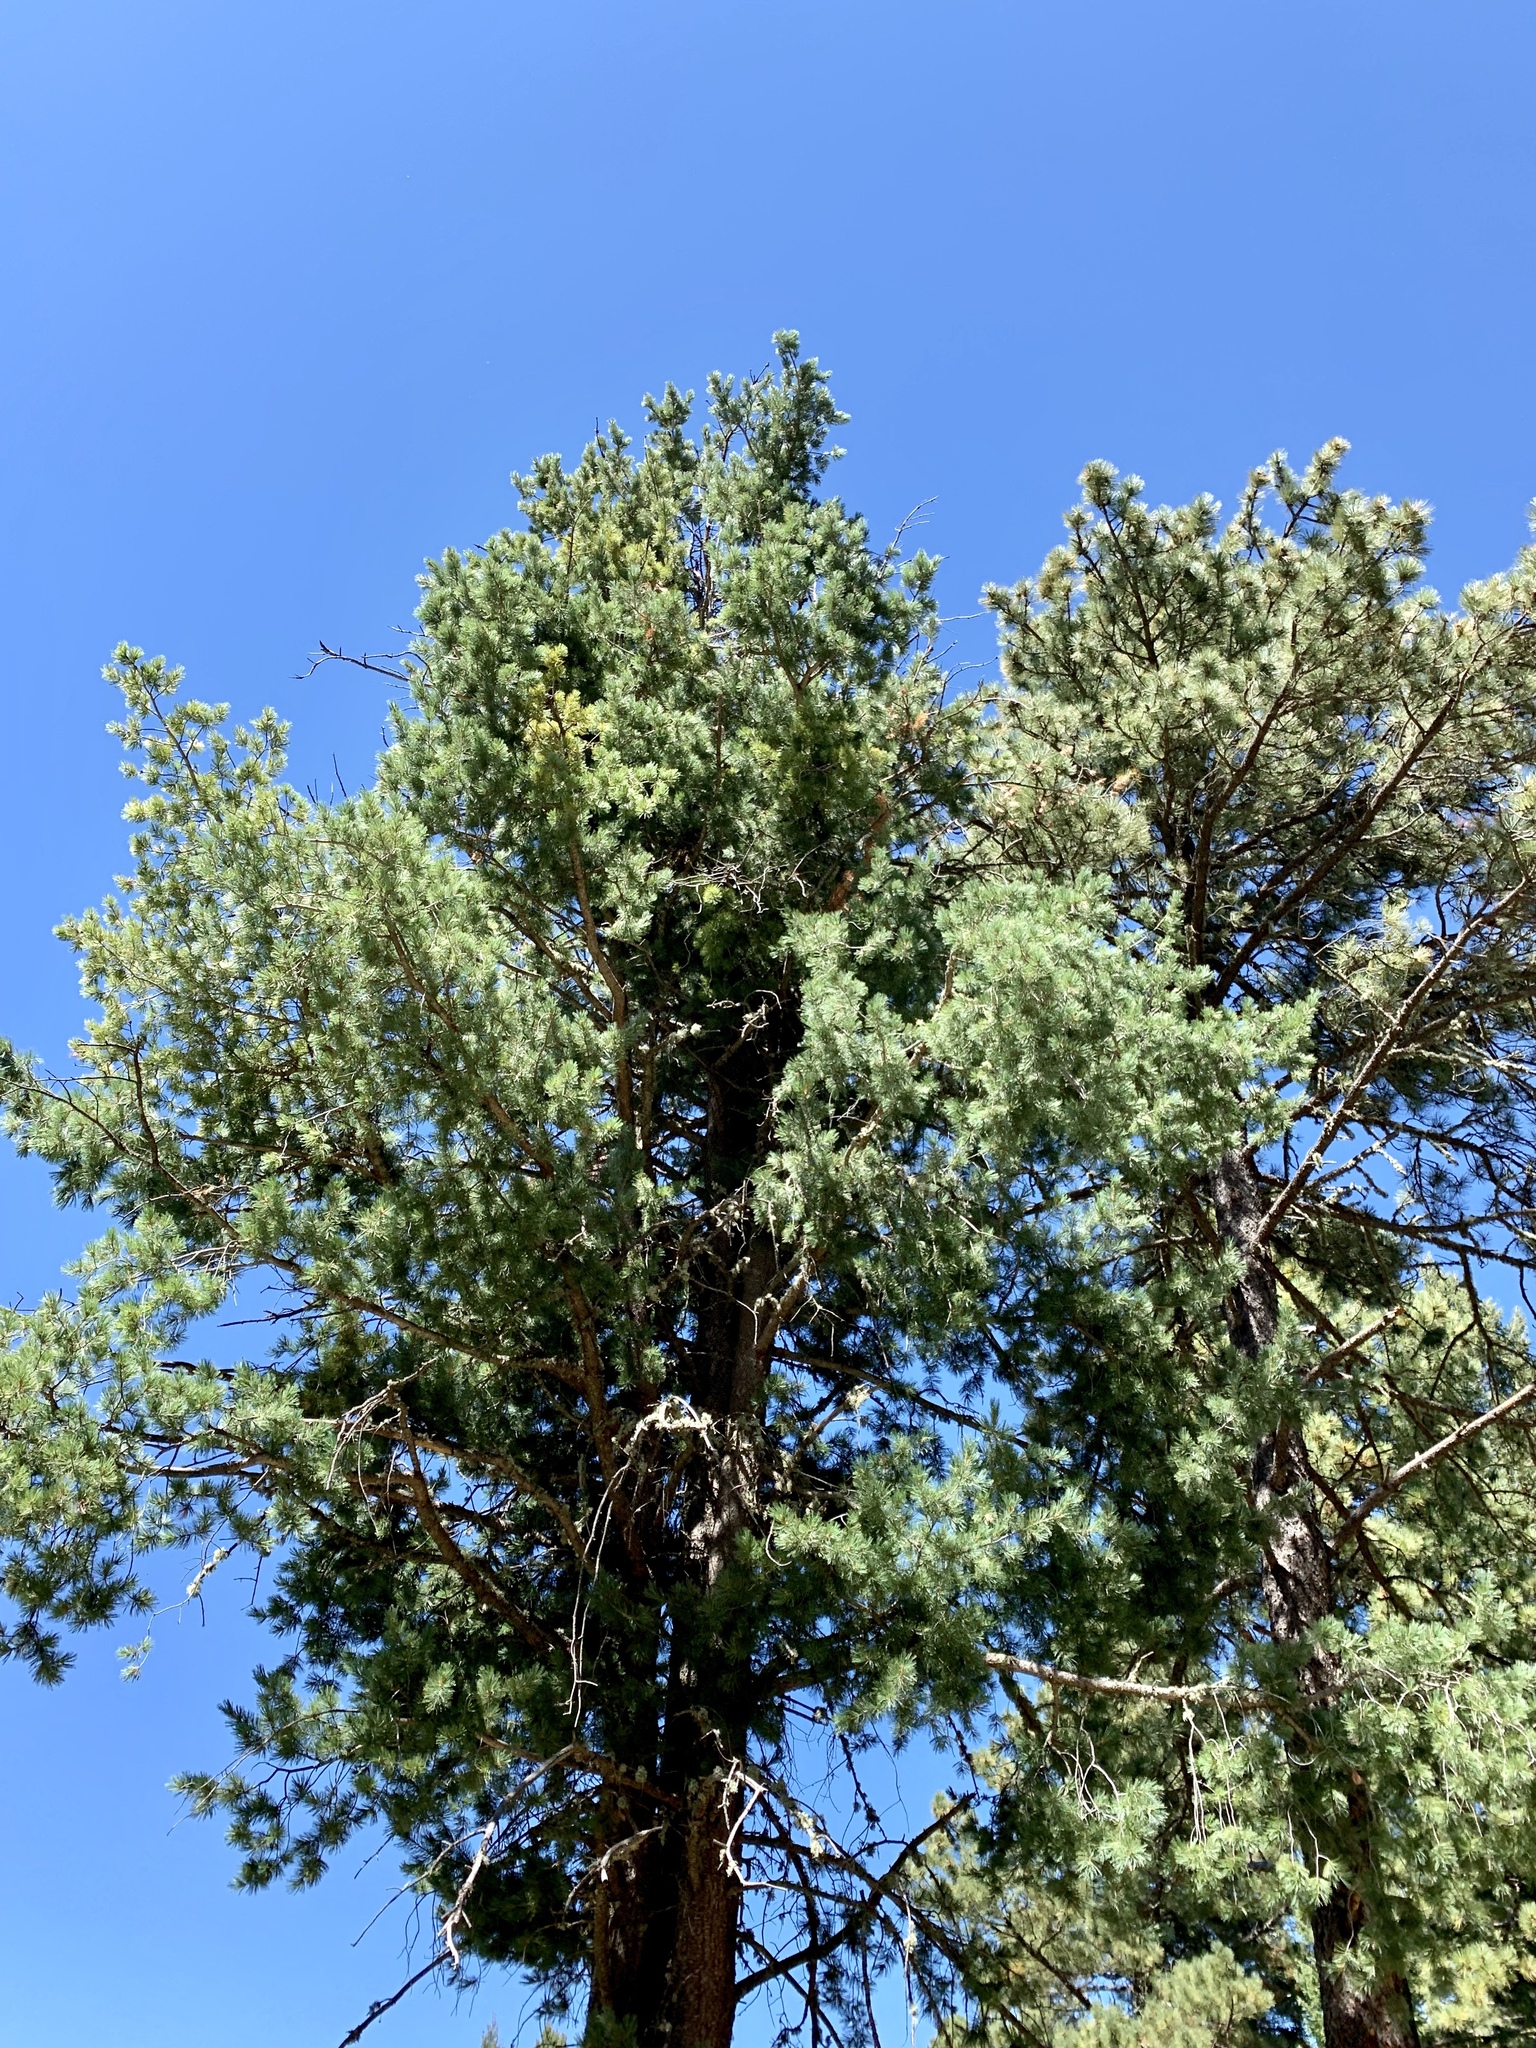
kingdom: Plantae
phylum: Tracheophyta
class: Pinopsida
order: Pinales
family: Pinaceae
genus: Pinus
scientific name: Pinus strobiformis
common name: Southwestern white pine
